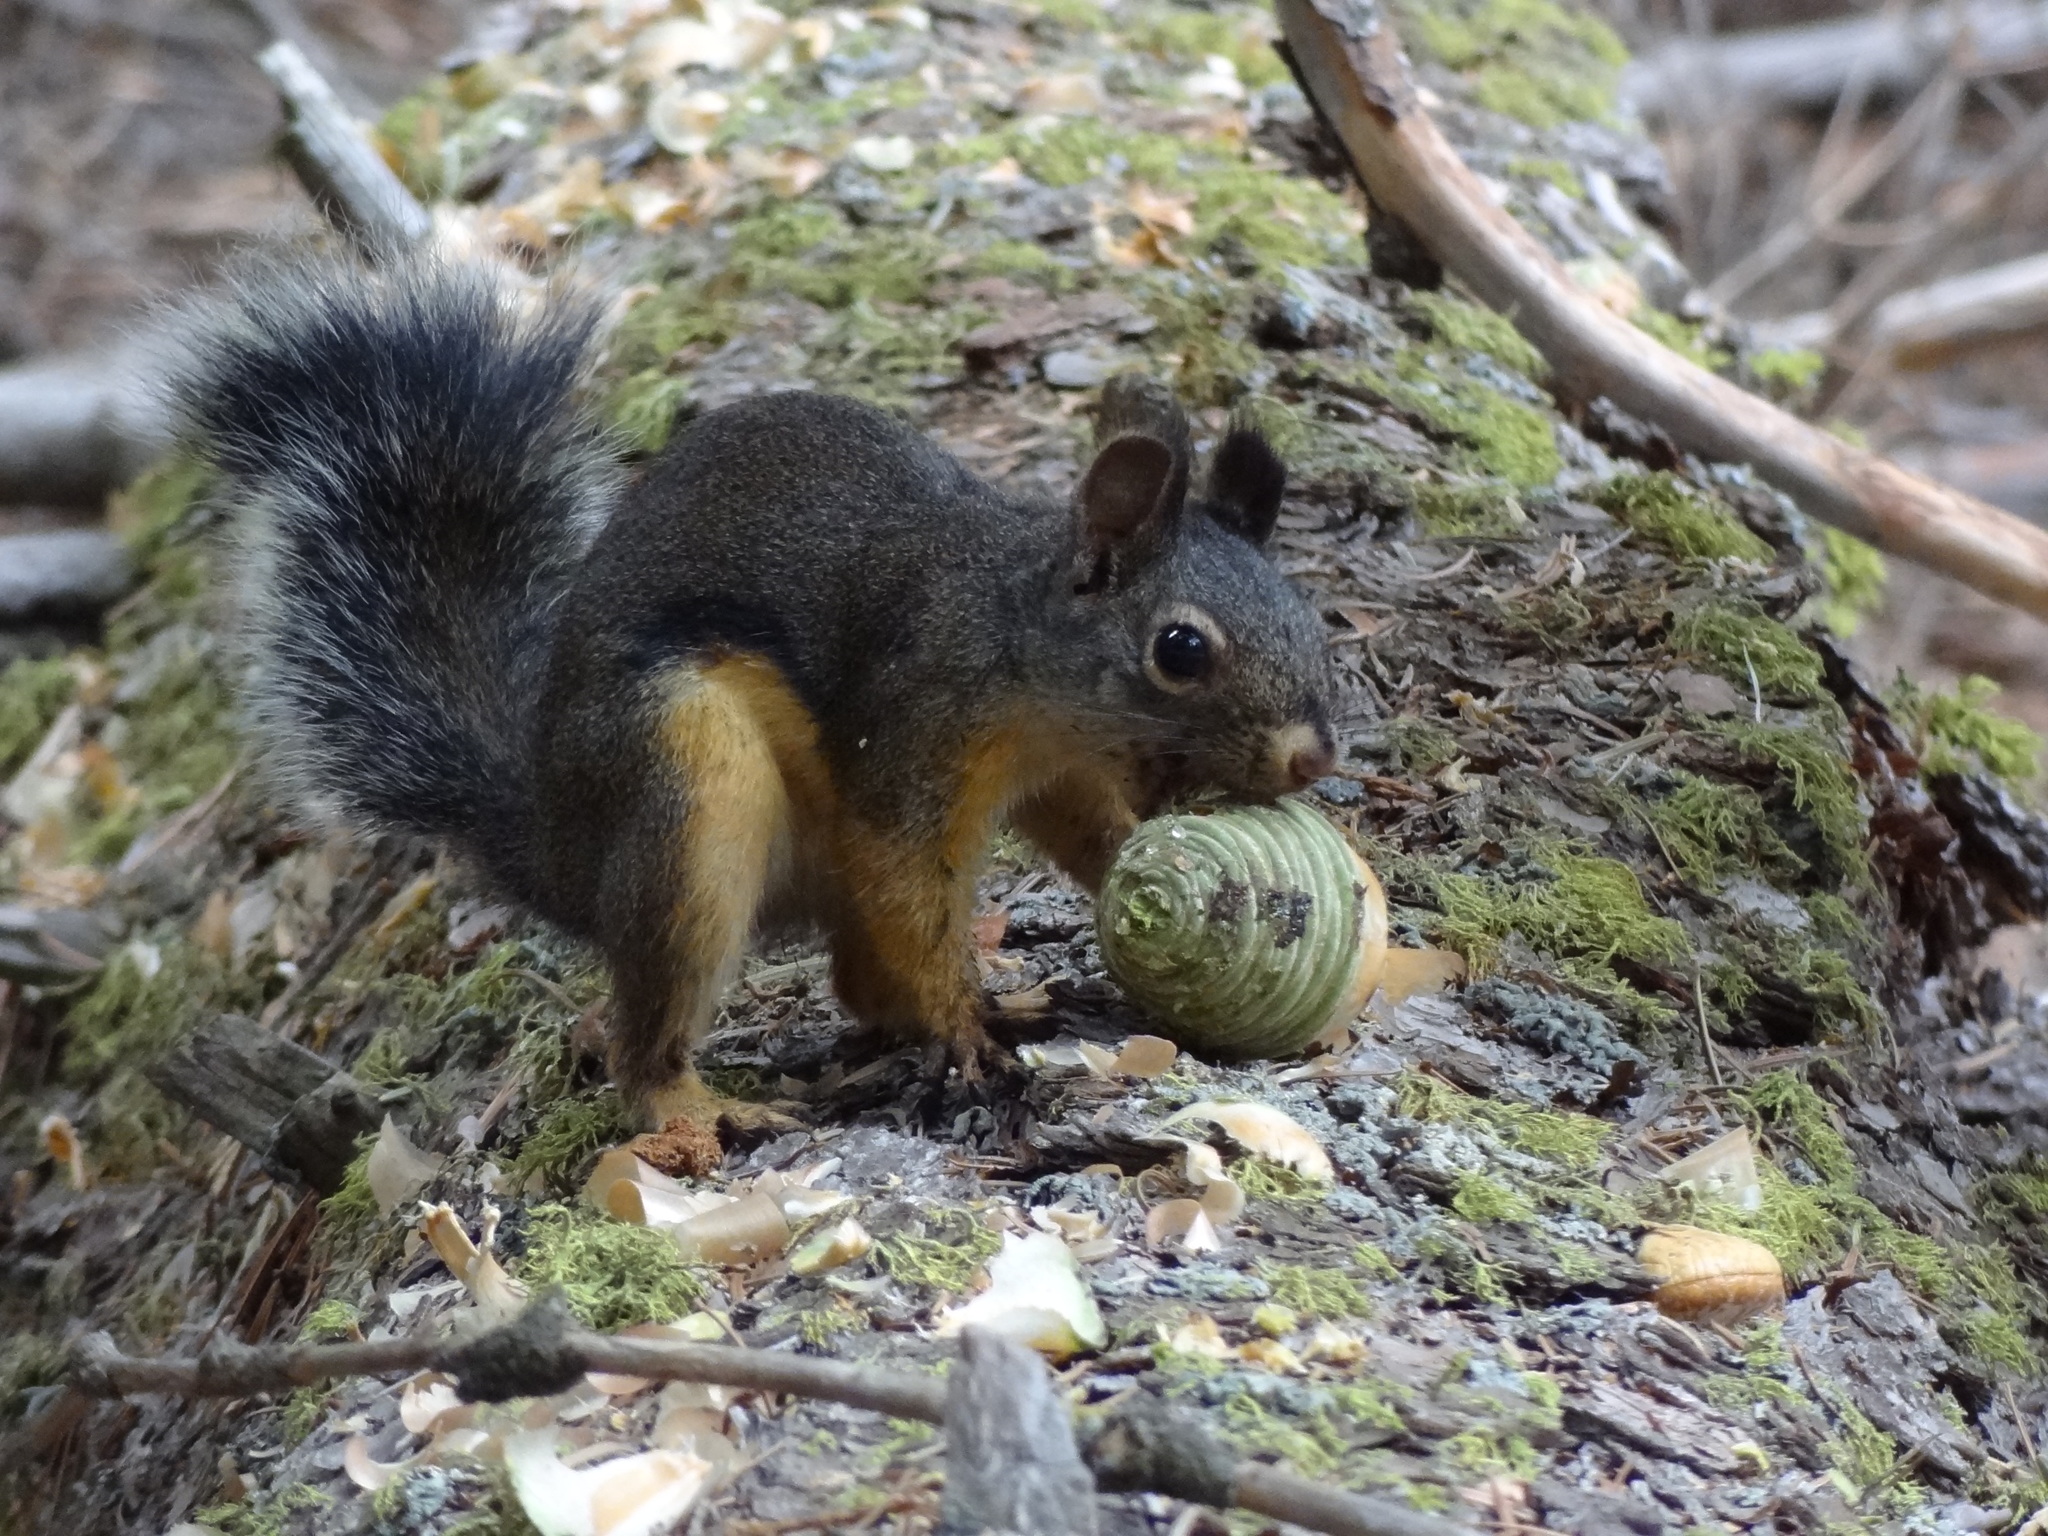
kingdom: Animalia
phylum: Chordata
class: Mammalia
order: Rodentia
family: Sciuridae
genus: Tamiasciurus
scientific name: Tamiasciurus douglasii
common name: Douglas's squirrel
